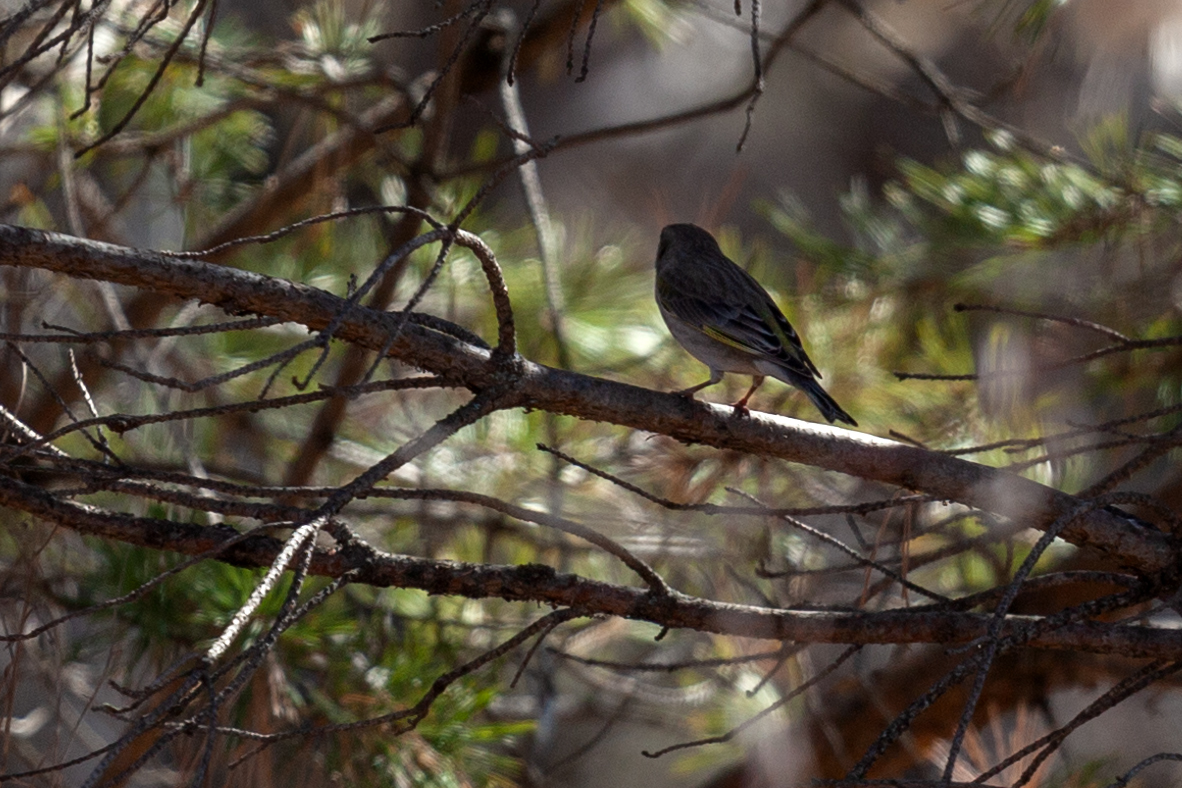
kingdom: Plantae
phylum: Tracheophyta
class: Liliopsida
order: Poales
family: Poaceae
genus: Chloris
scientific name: Chloris chloris
